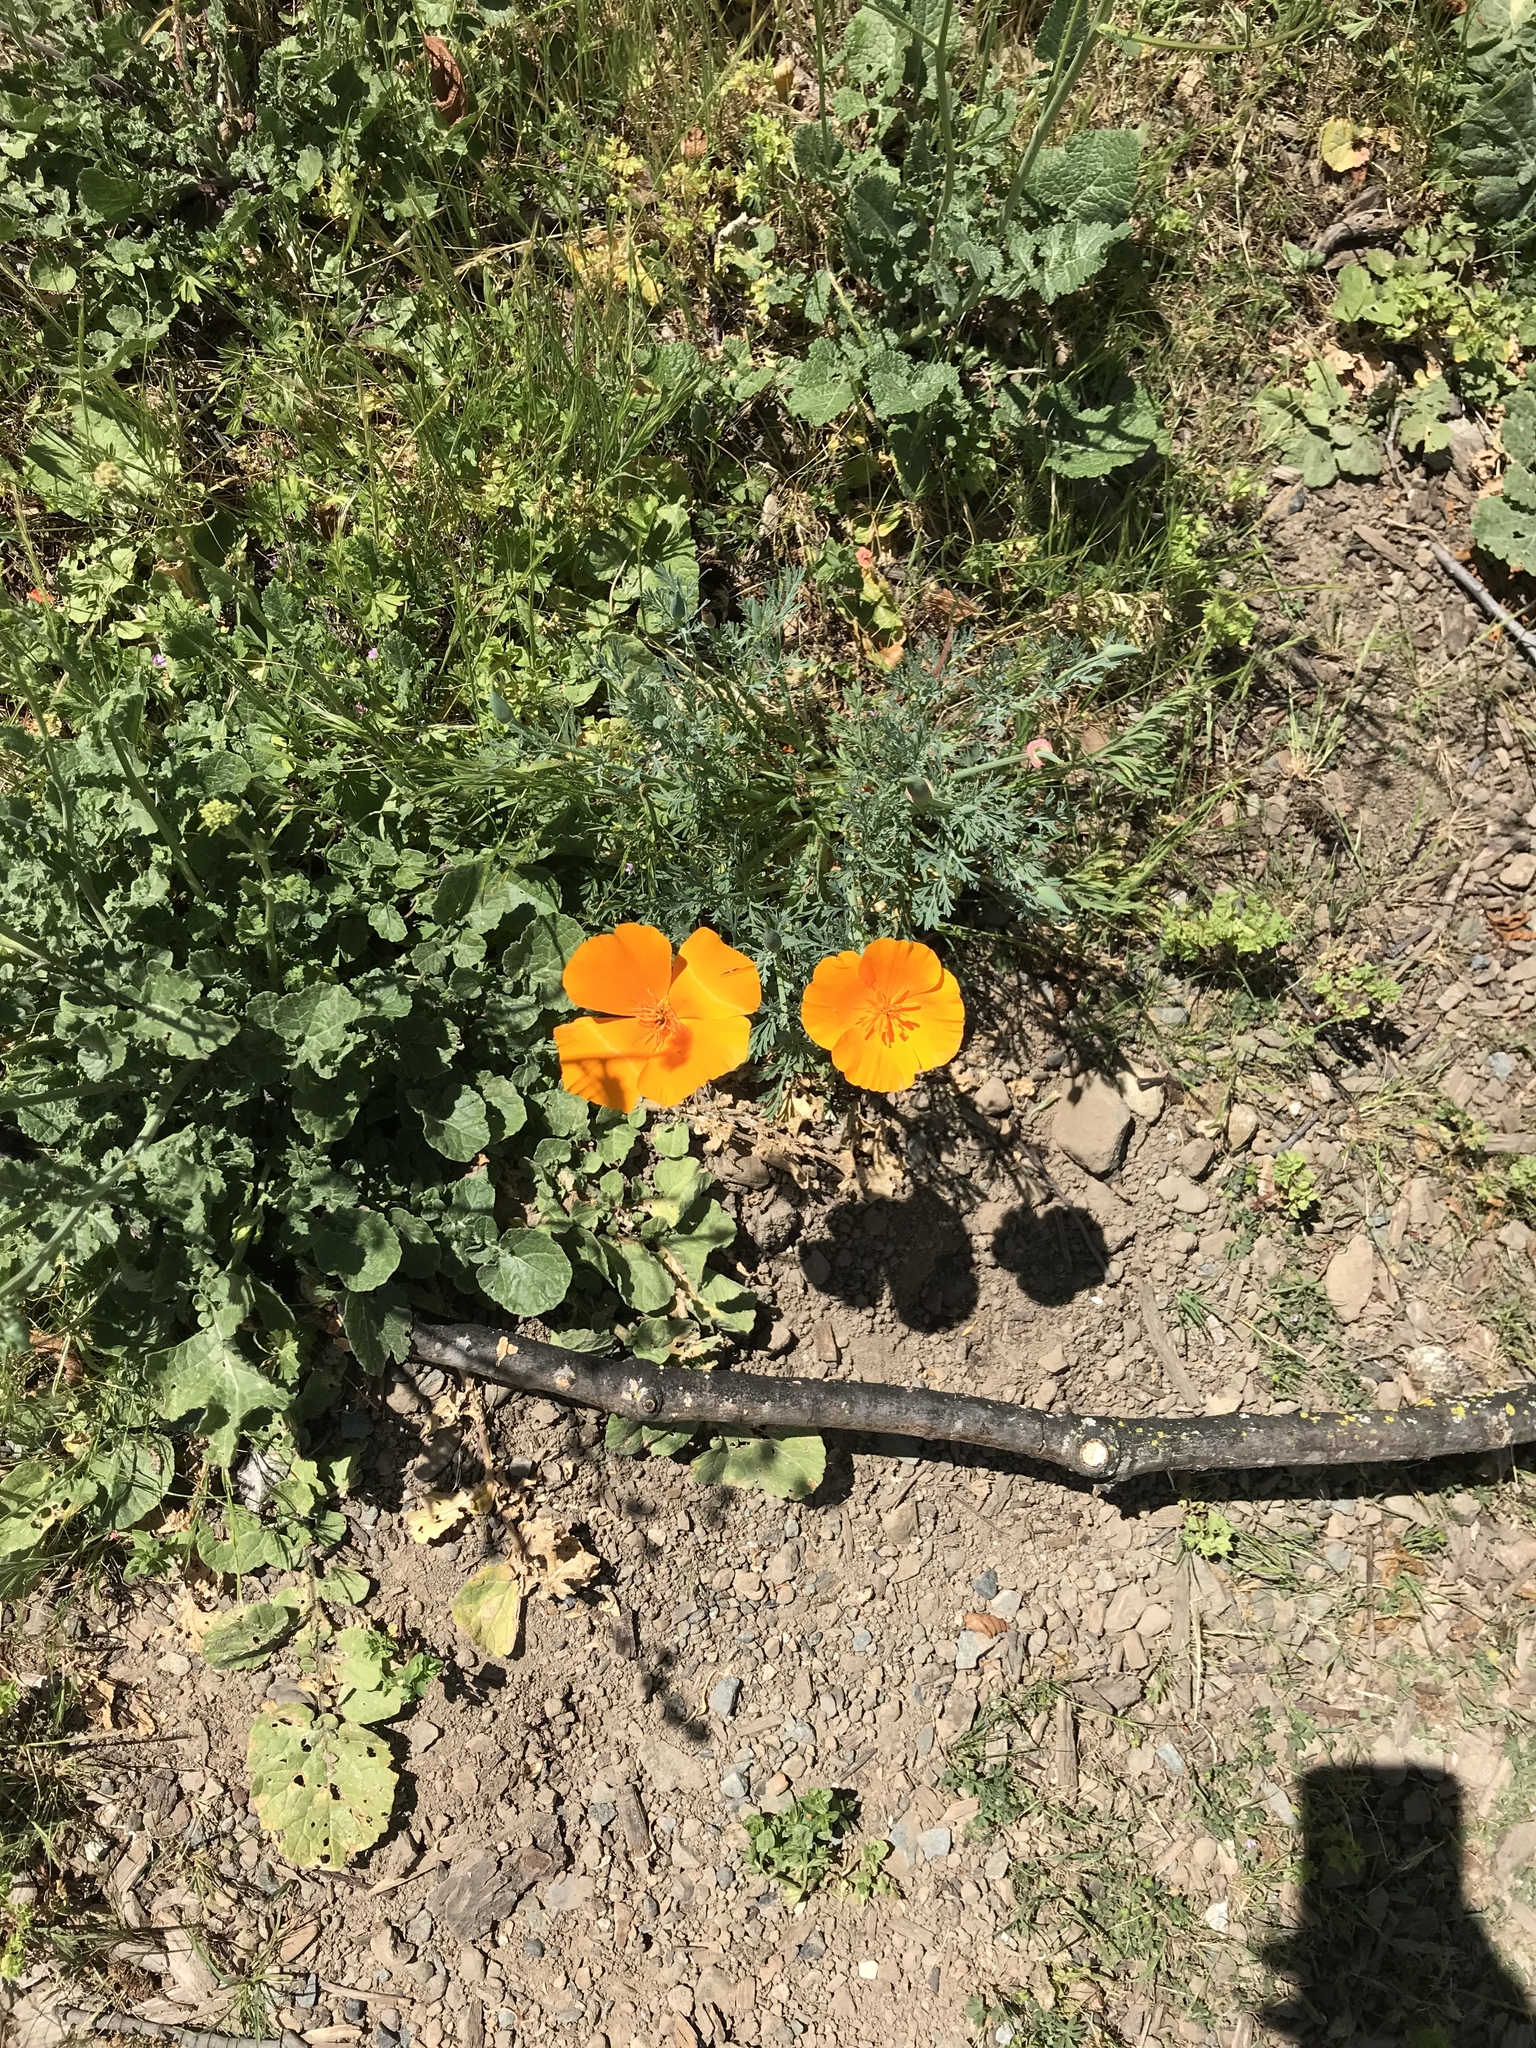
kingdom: Plantae
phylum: Tracheophyta
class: Magnoliopsida
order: Ranunculales
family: Papaveraceae
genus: Eschscholzia
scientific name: Eschscholzia californica
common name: California poppy
